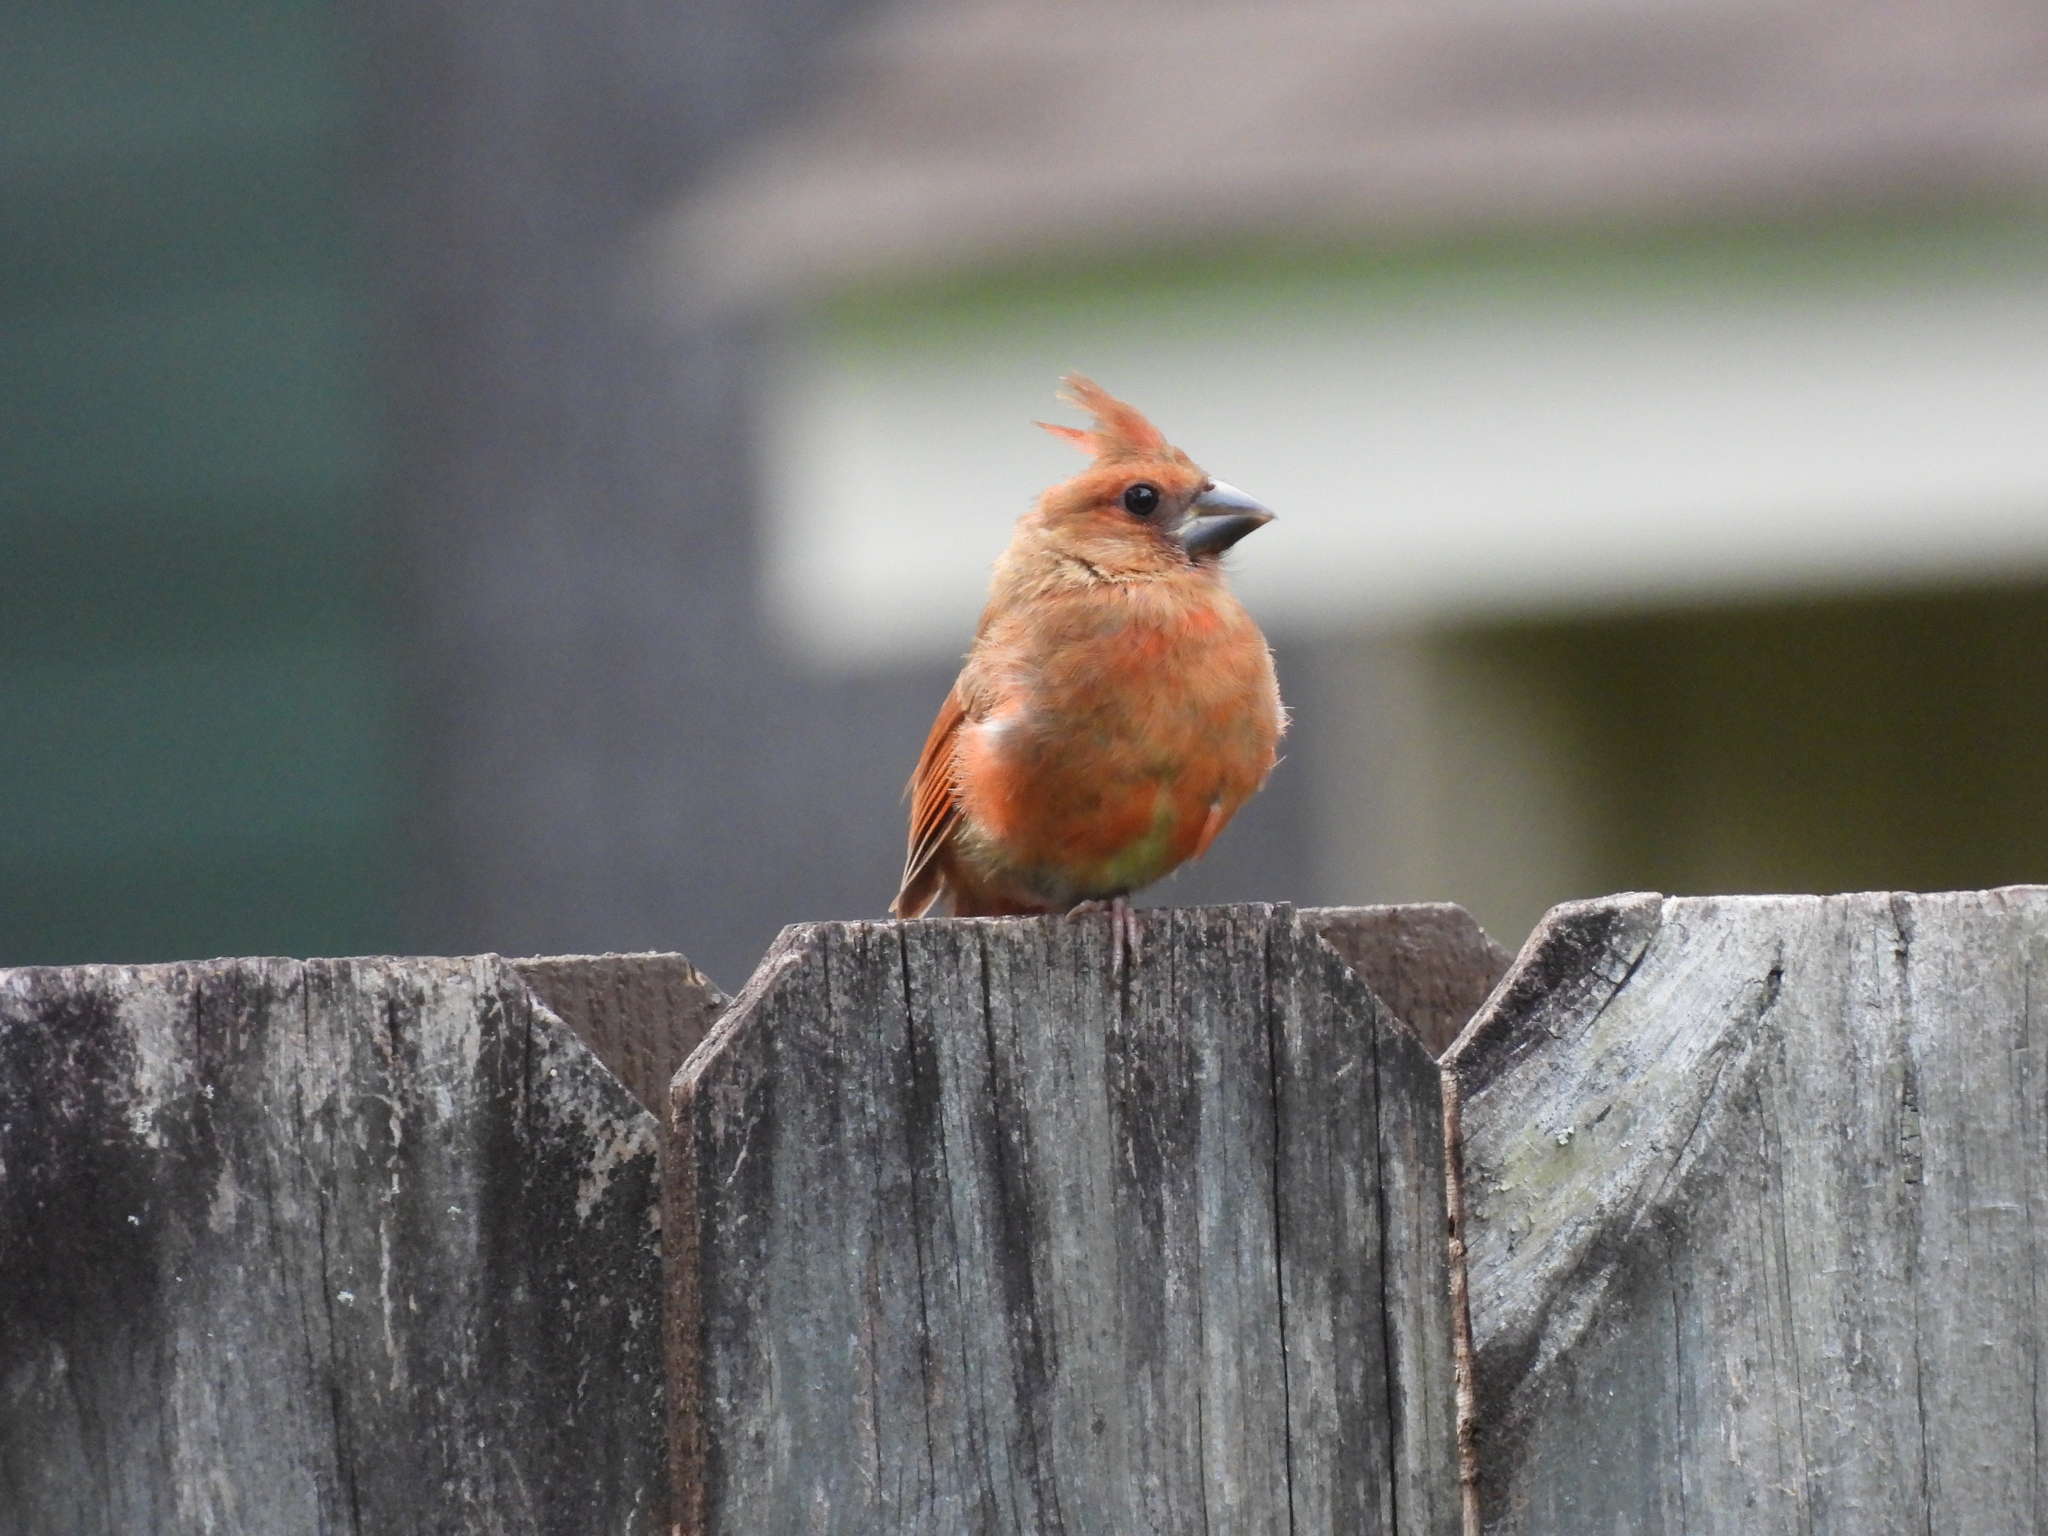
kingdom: Animalia
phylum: Chordata
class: Aves
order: Passeriformes
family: Cardinalidae
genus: Cardinalis
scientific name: Cardinalis cardinalis
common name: Northern cardinal
